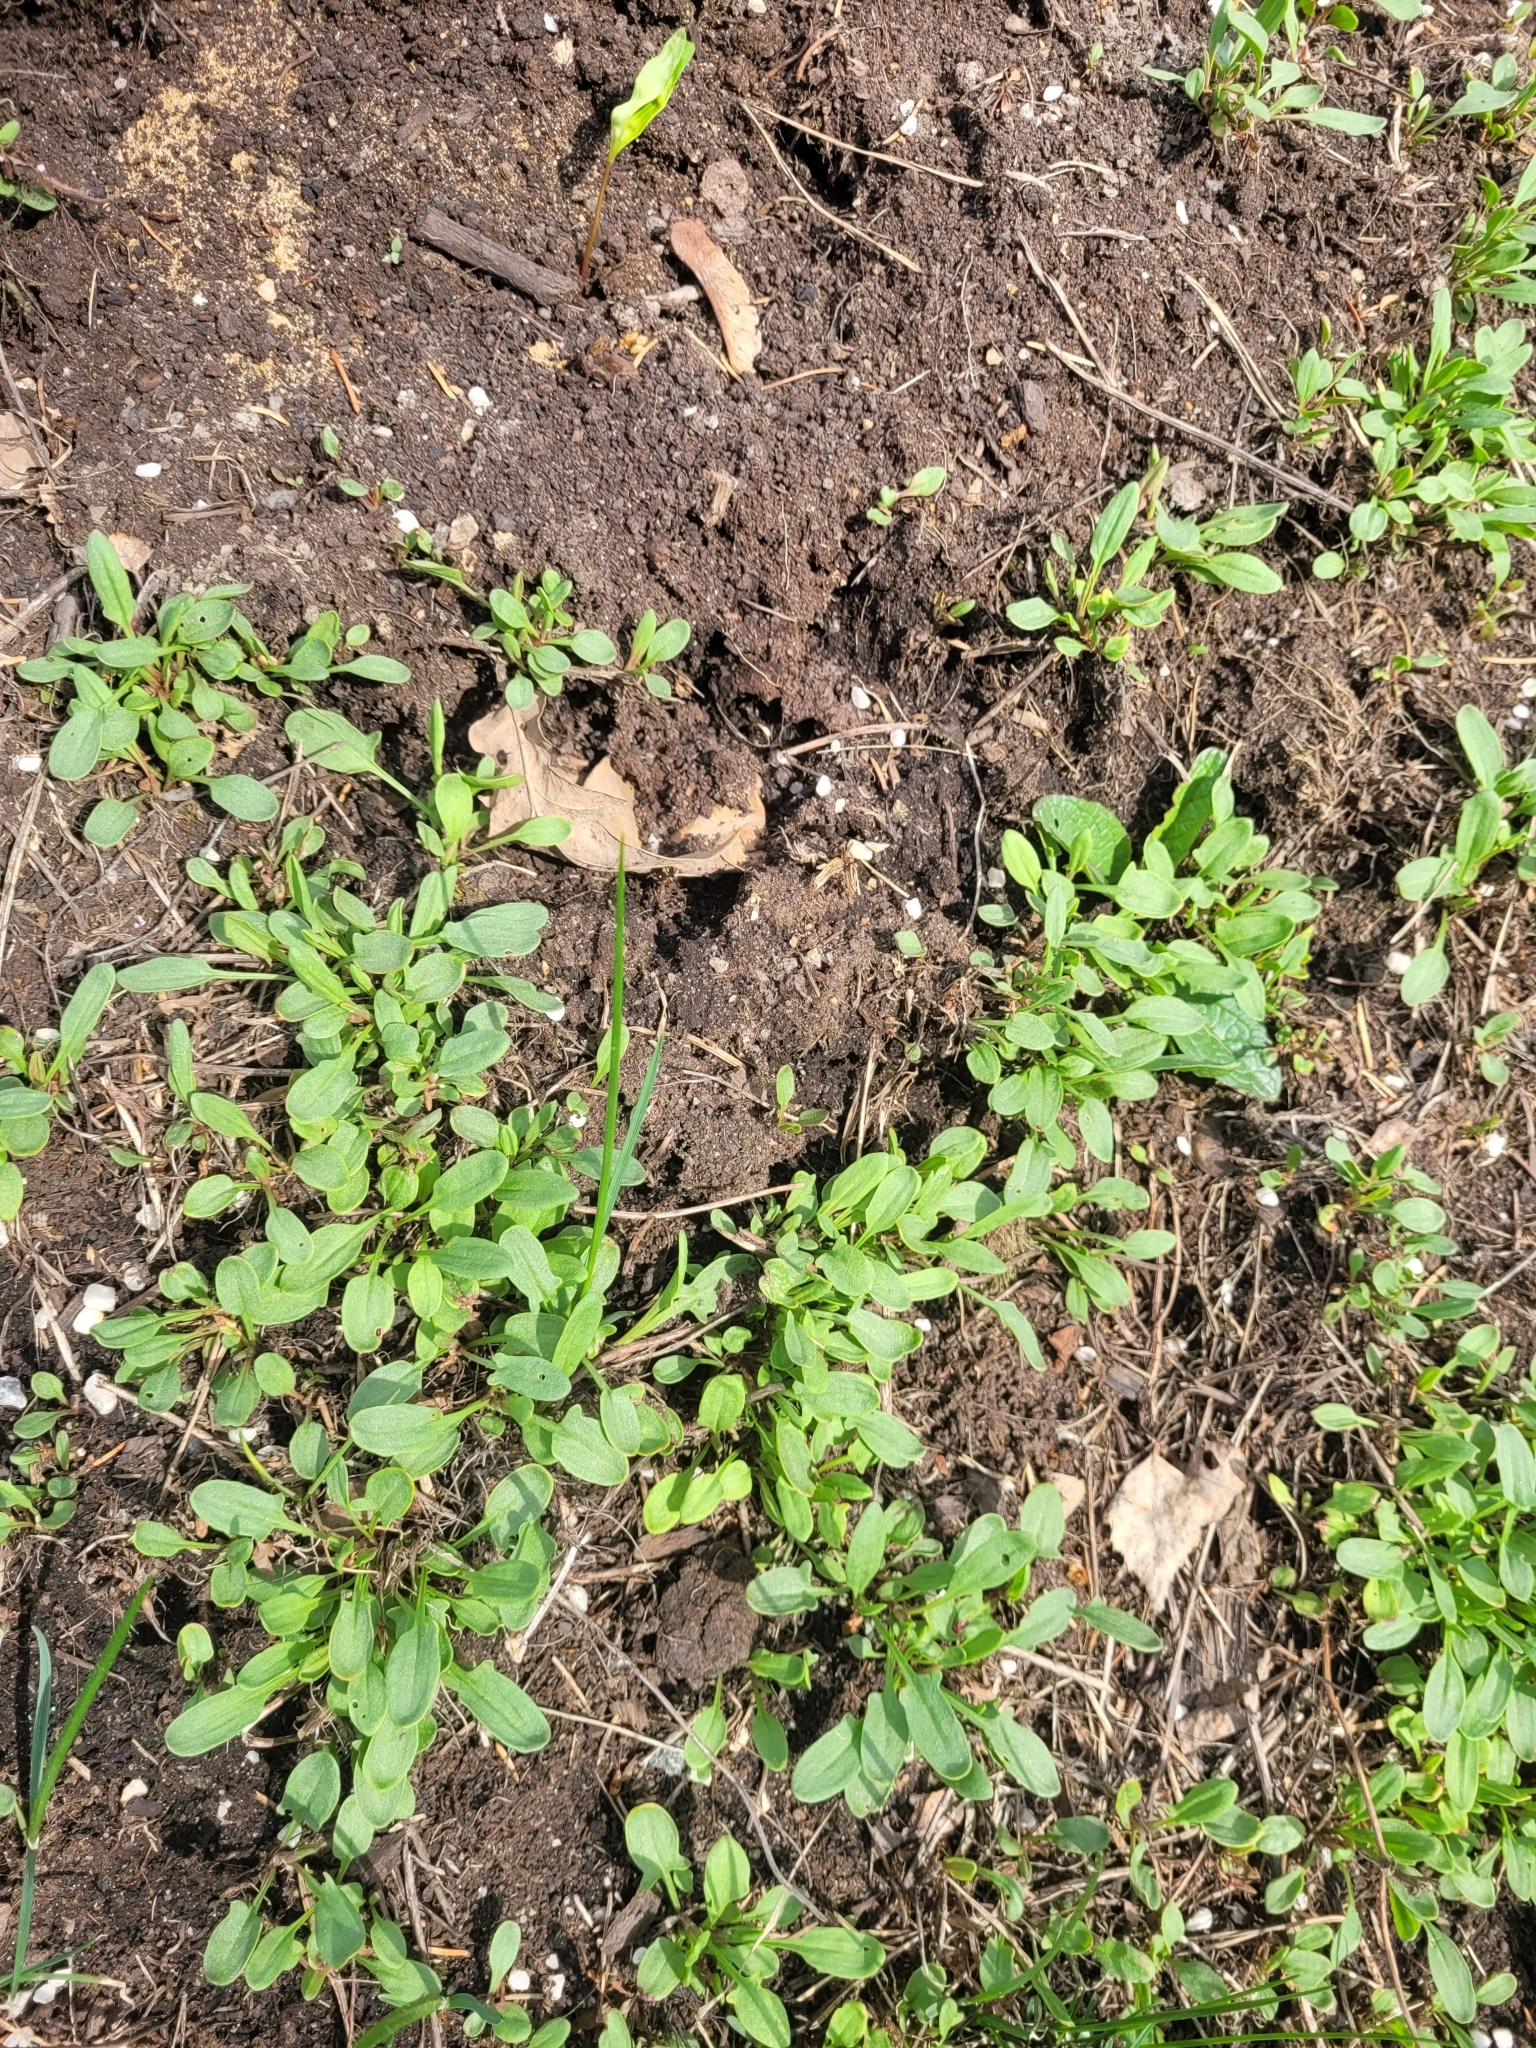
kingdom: Plantae
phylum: Tracheophyta
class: Magnoliopsida
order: Caryophyllales
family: Polygonaceae
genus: Rumex
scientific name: Rumex acetosella
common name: Common sheep sorrel
